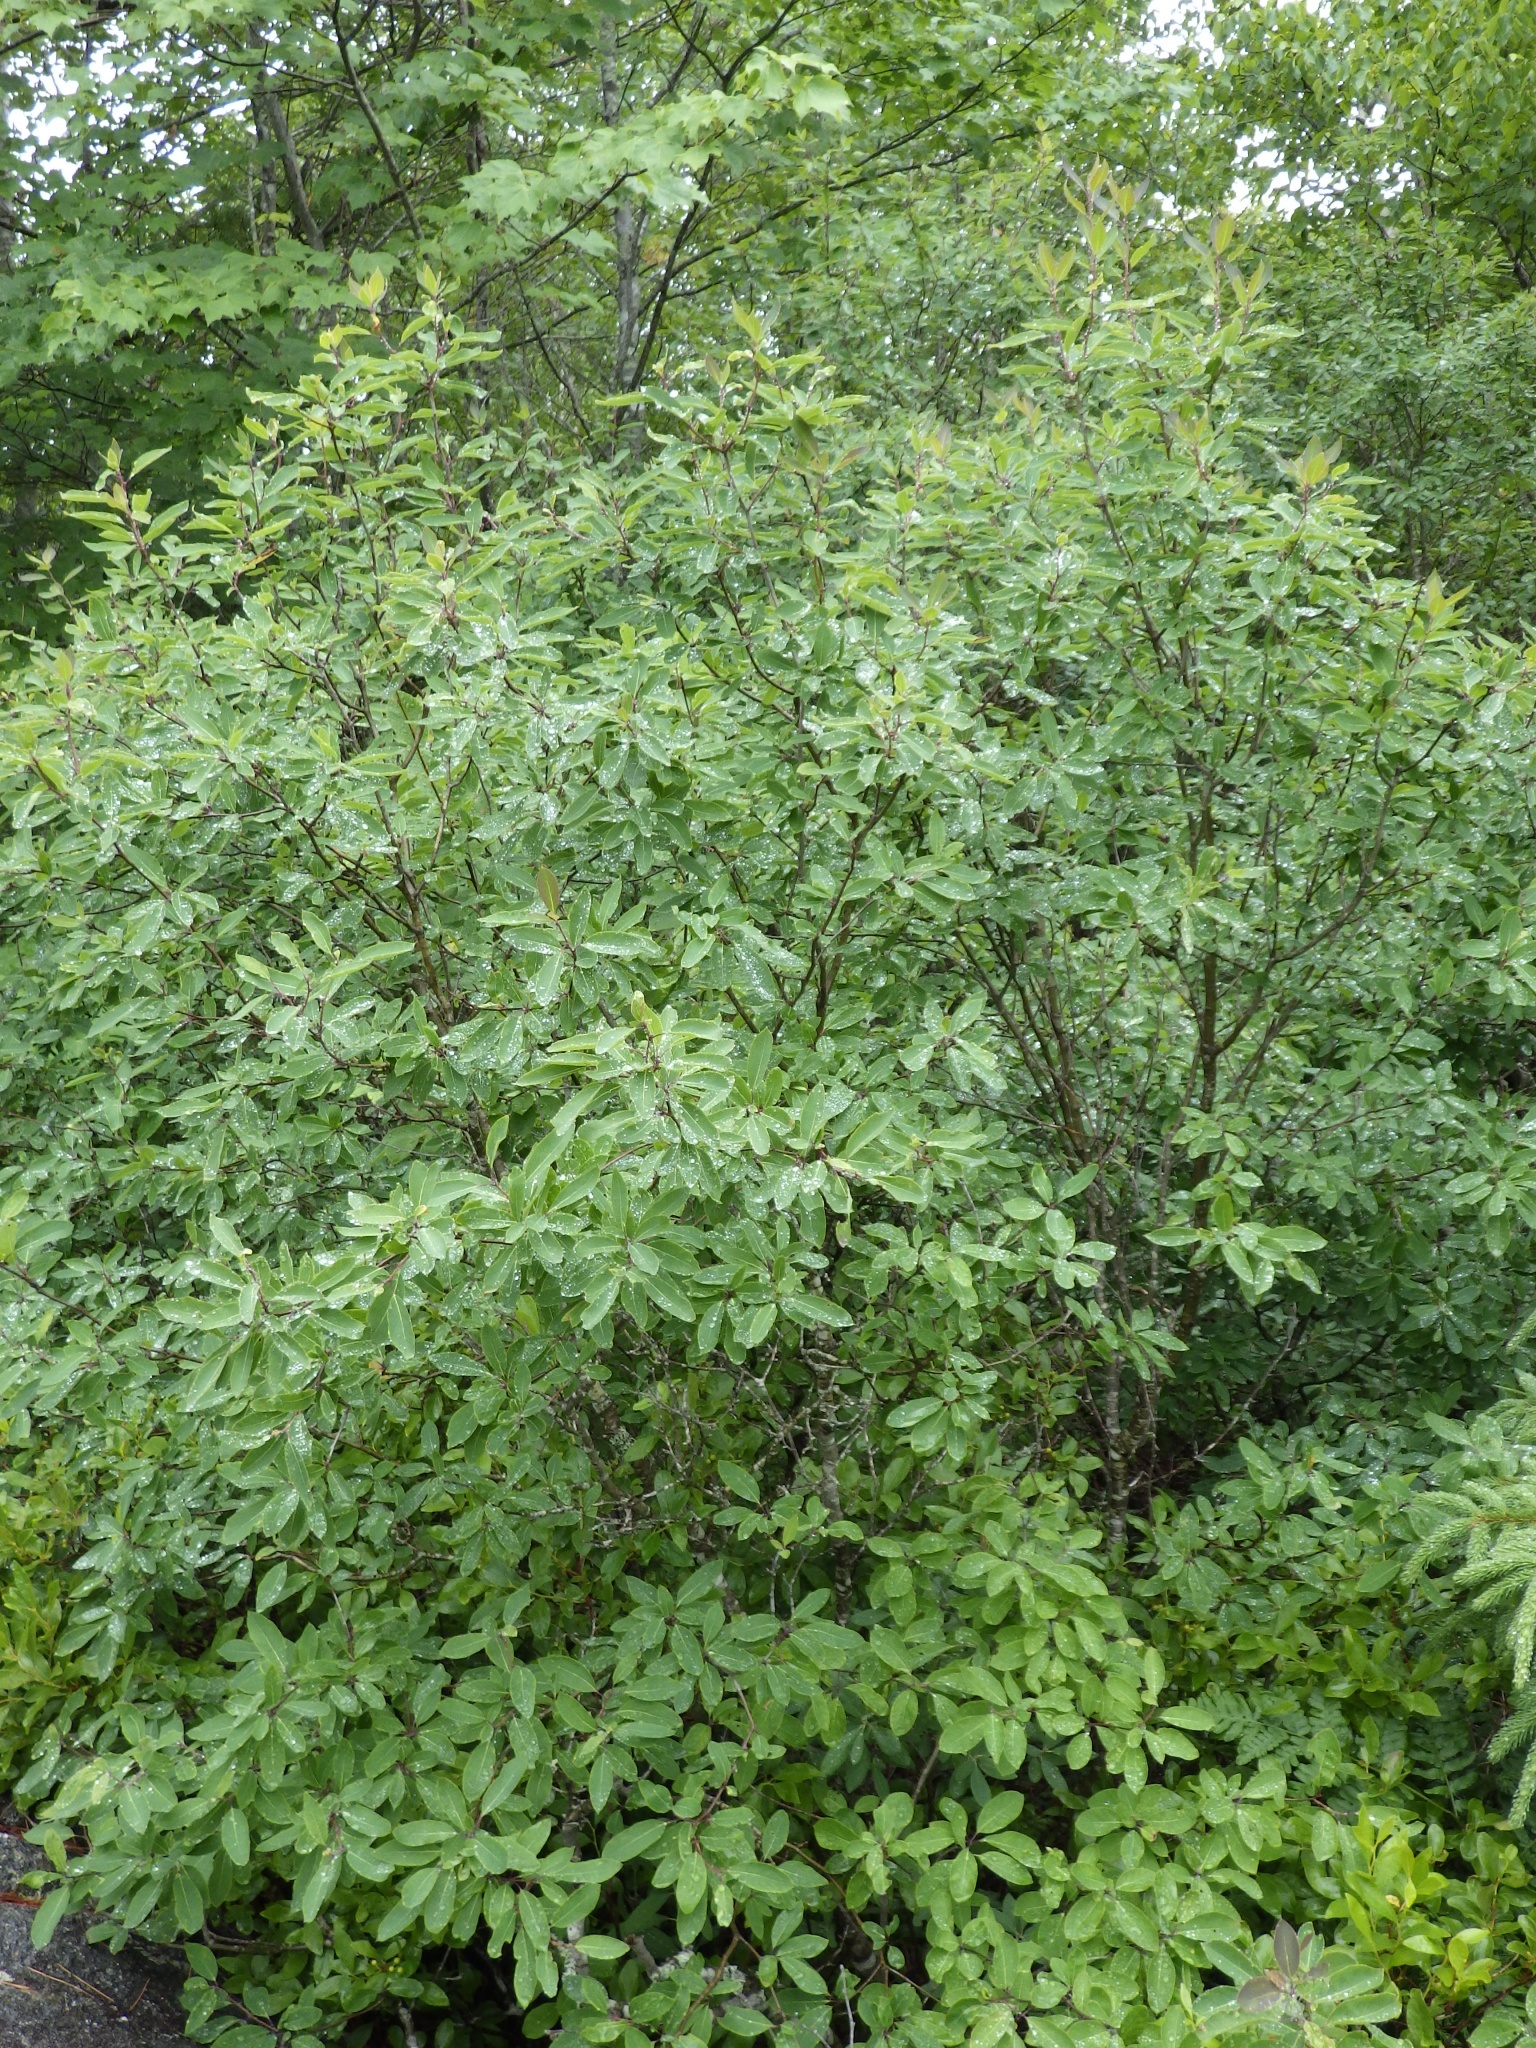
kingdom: Plantae
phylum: Tracheophyta
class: Magnoliopsida
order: Aquifoliales
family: Aquifoliaceae
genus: Ilex
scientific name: Ilex mucronata
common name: Catberry
